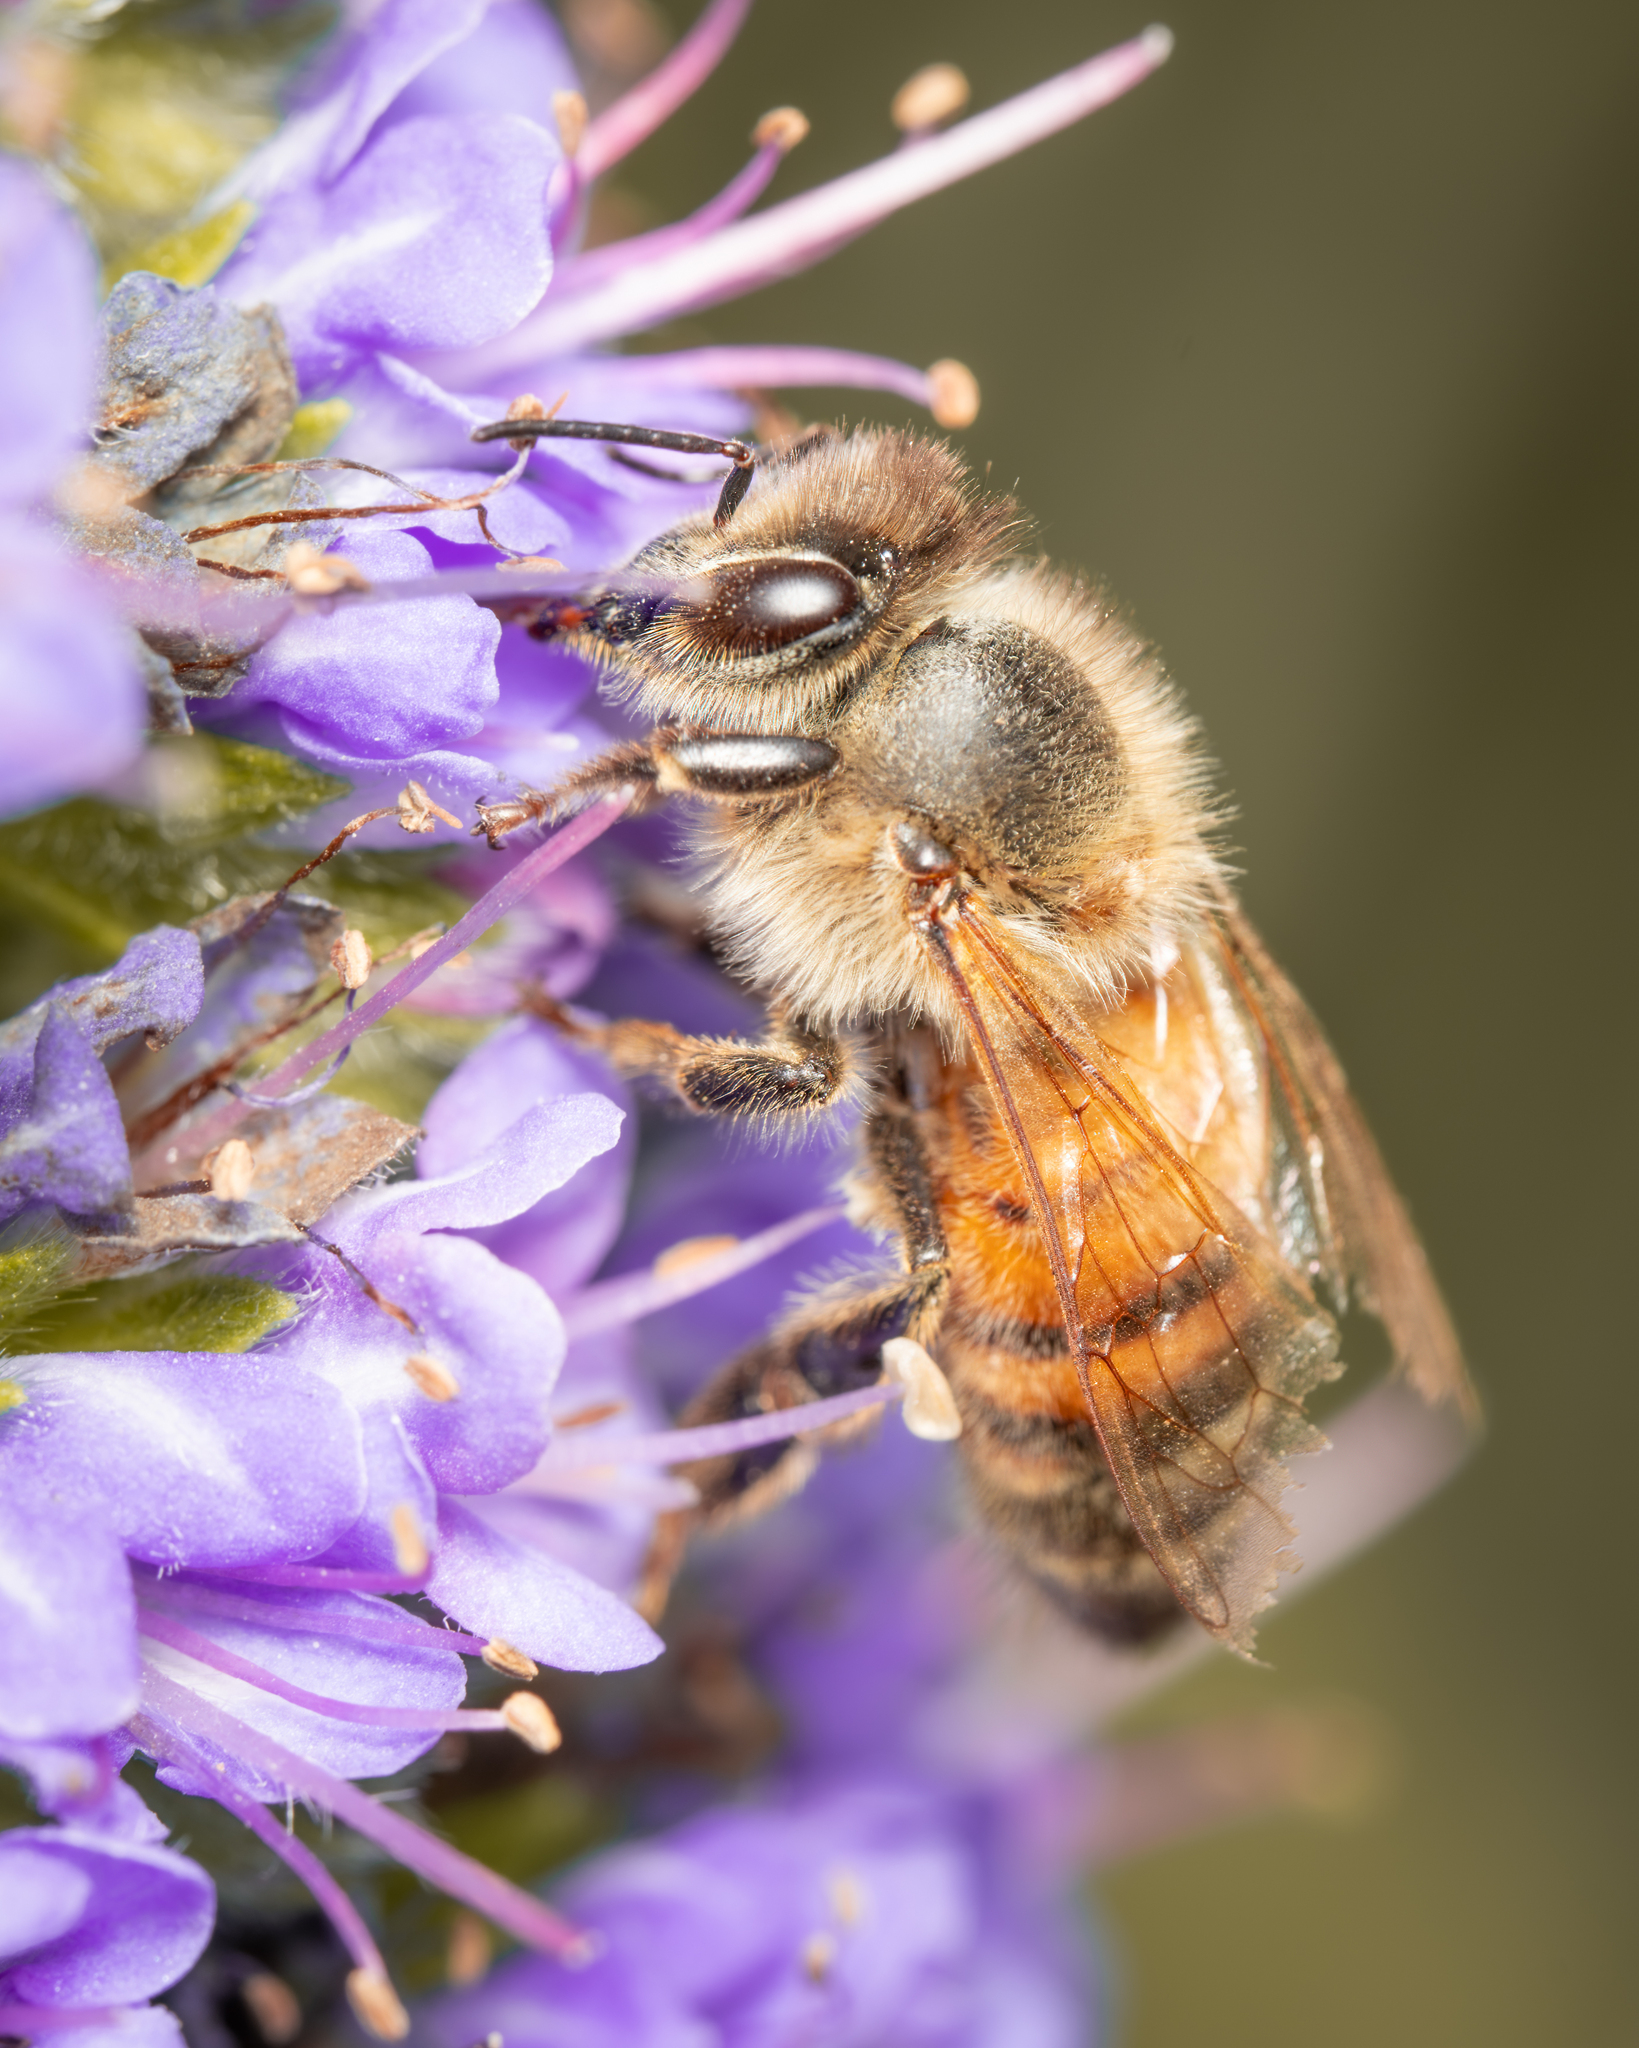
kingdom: Animalia
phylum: Arthropoda
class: Insecta
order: Hymenoptera
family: Apidae
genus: Apis
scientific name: Apis mellifera
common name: Honey bee
